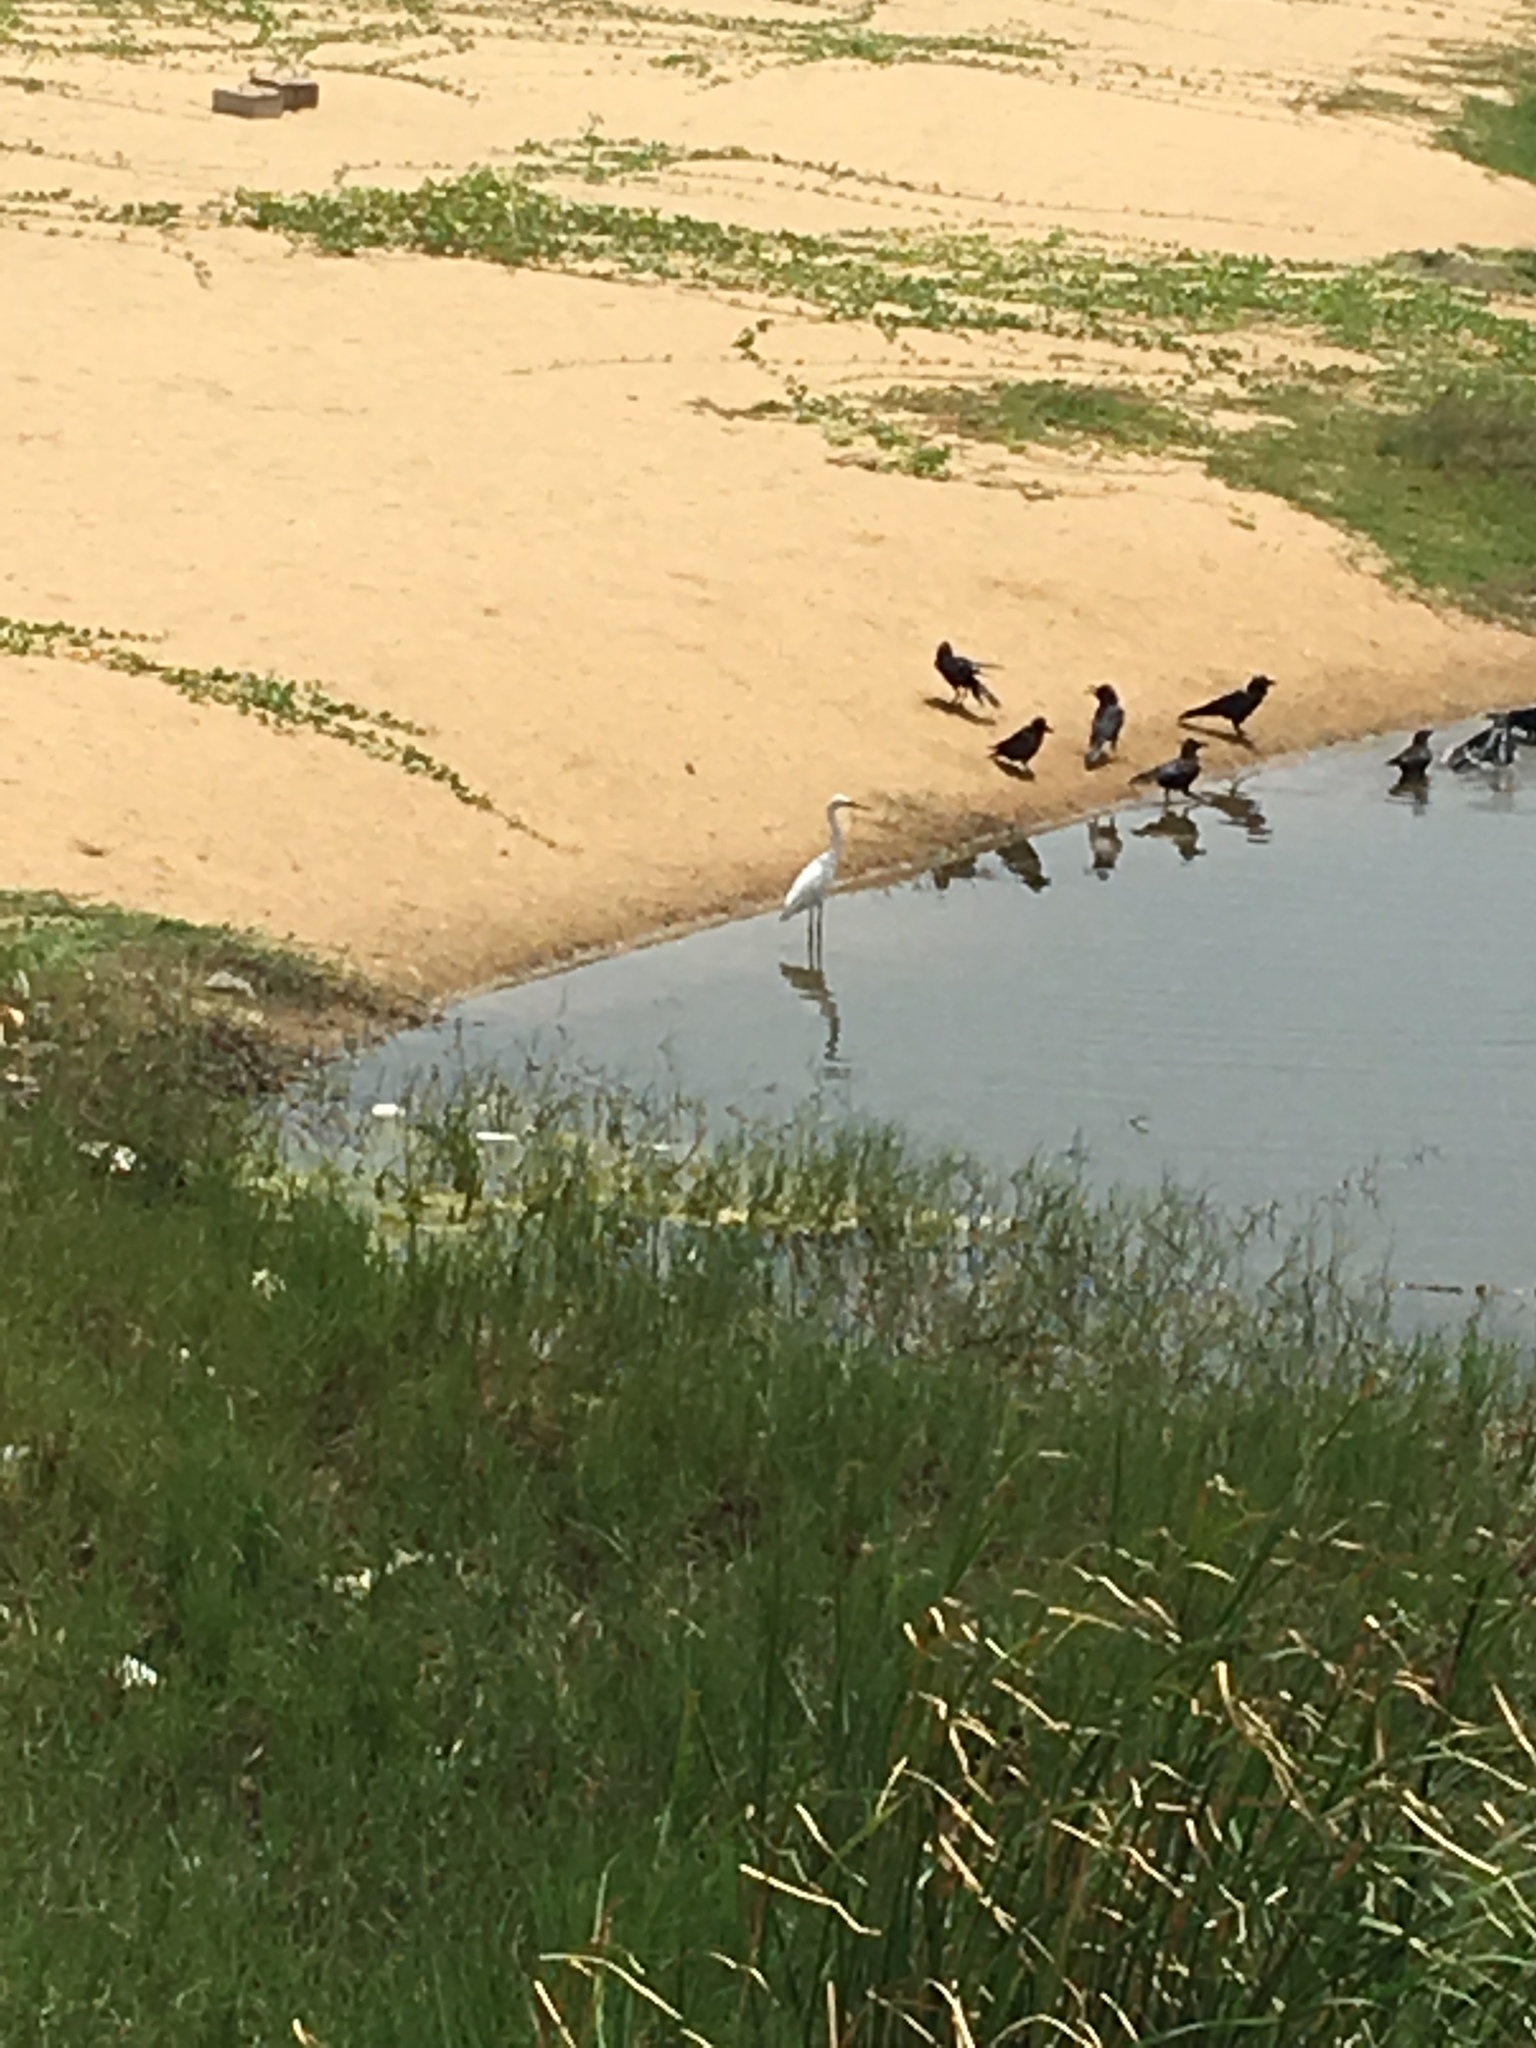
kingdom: Animalia
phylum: Chordata
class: Aves
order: Pelecaniformes
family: Ardeidae
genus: Ardea
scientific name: Ardea alba
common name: Great egret
